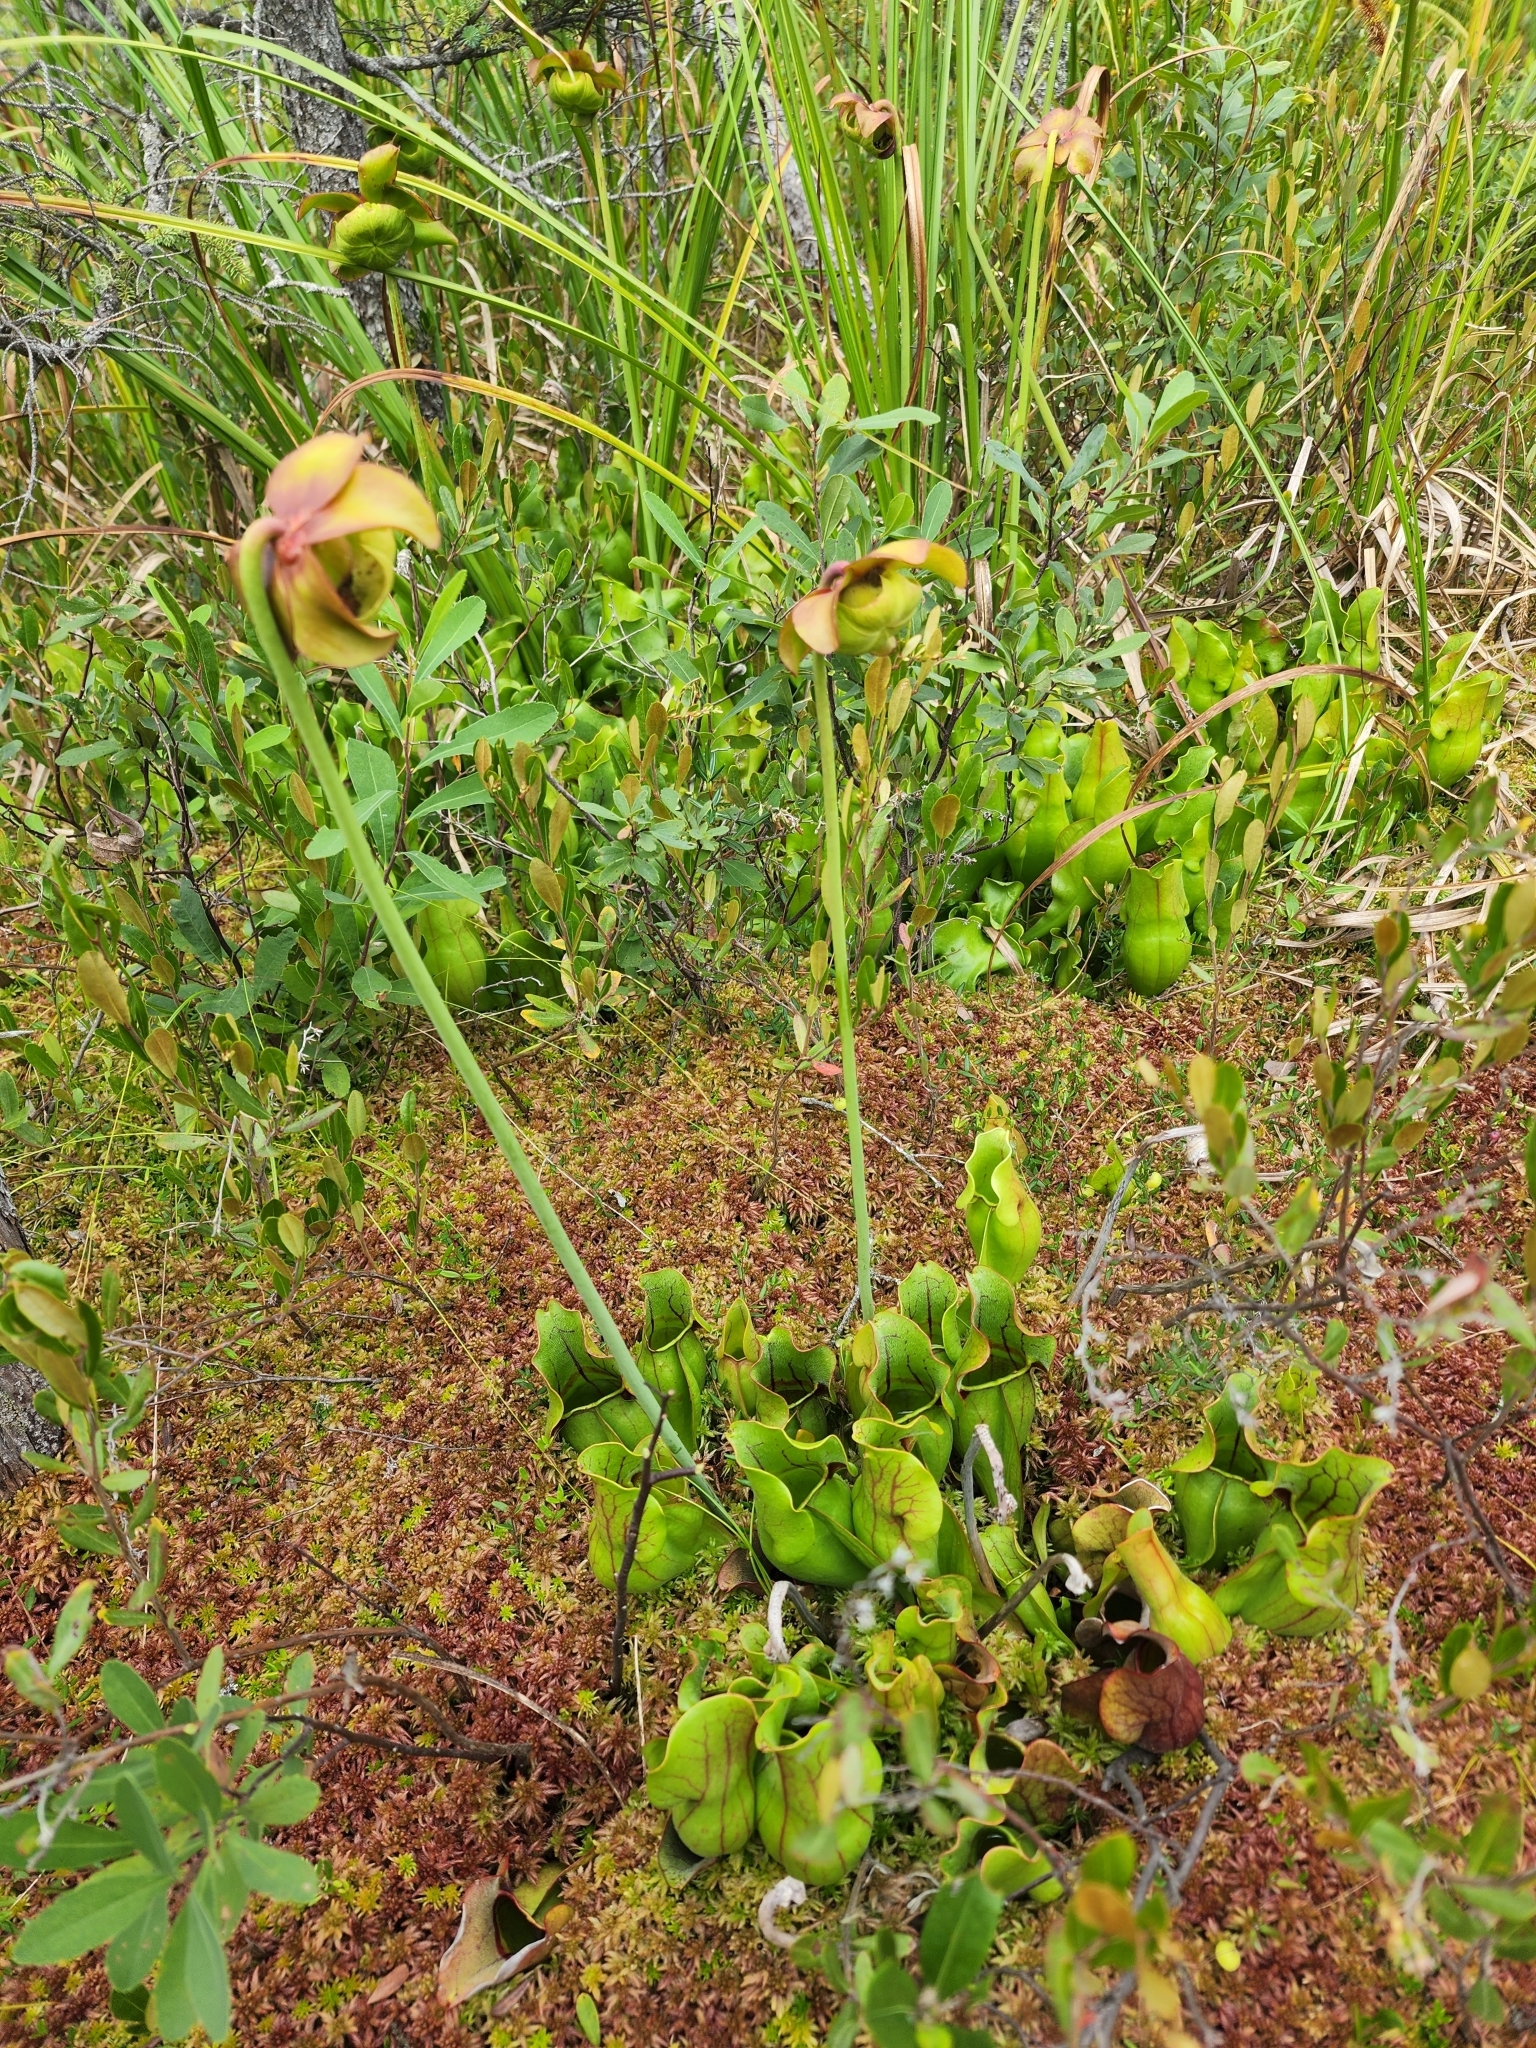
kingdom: Plantae
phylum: Tracheophyta
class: Magnoliopsida
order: Ericales
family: Sarraceniaceae
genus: Sarracenia
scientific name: Sarracenia purpurea
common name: Pitcherplant
